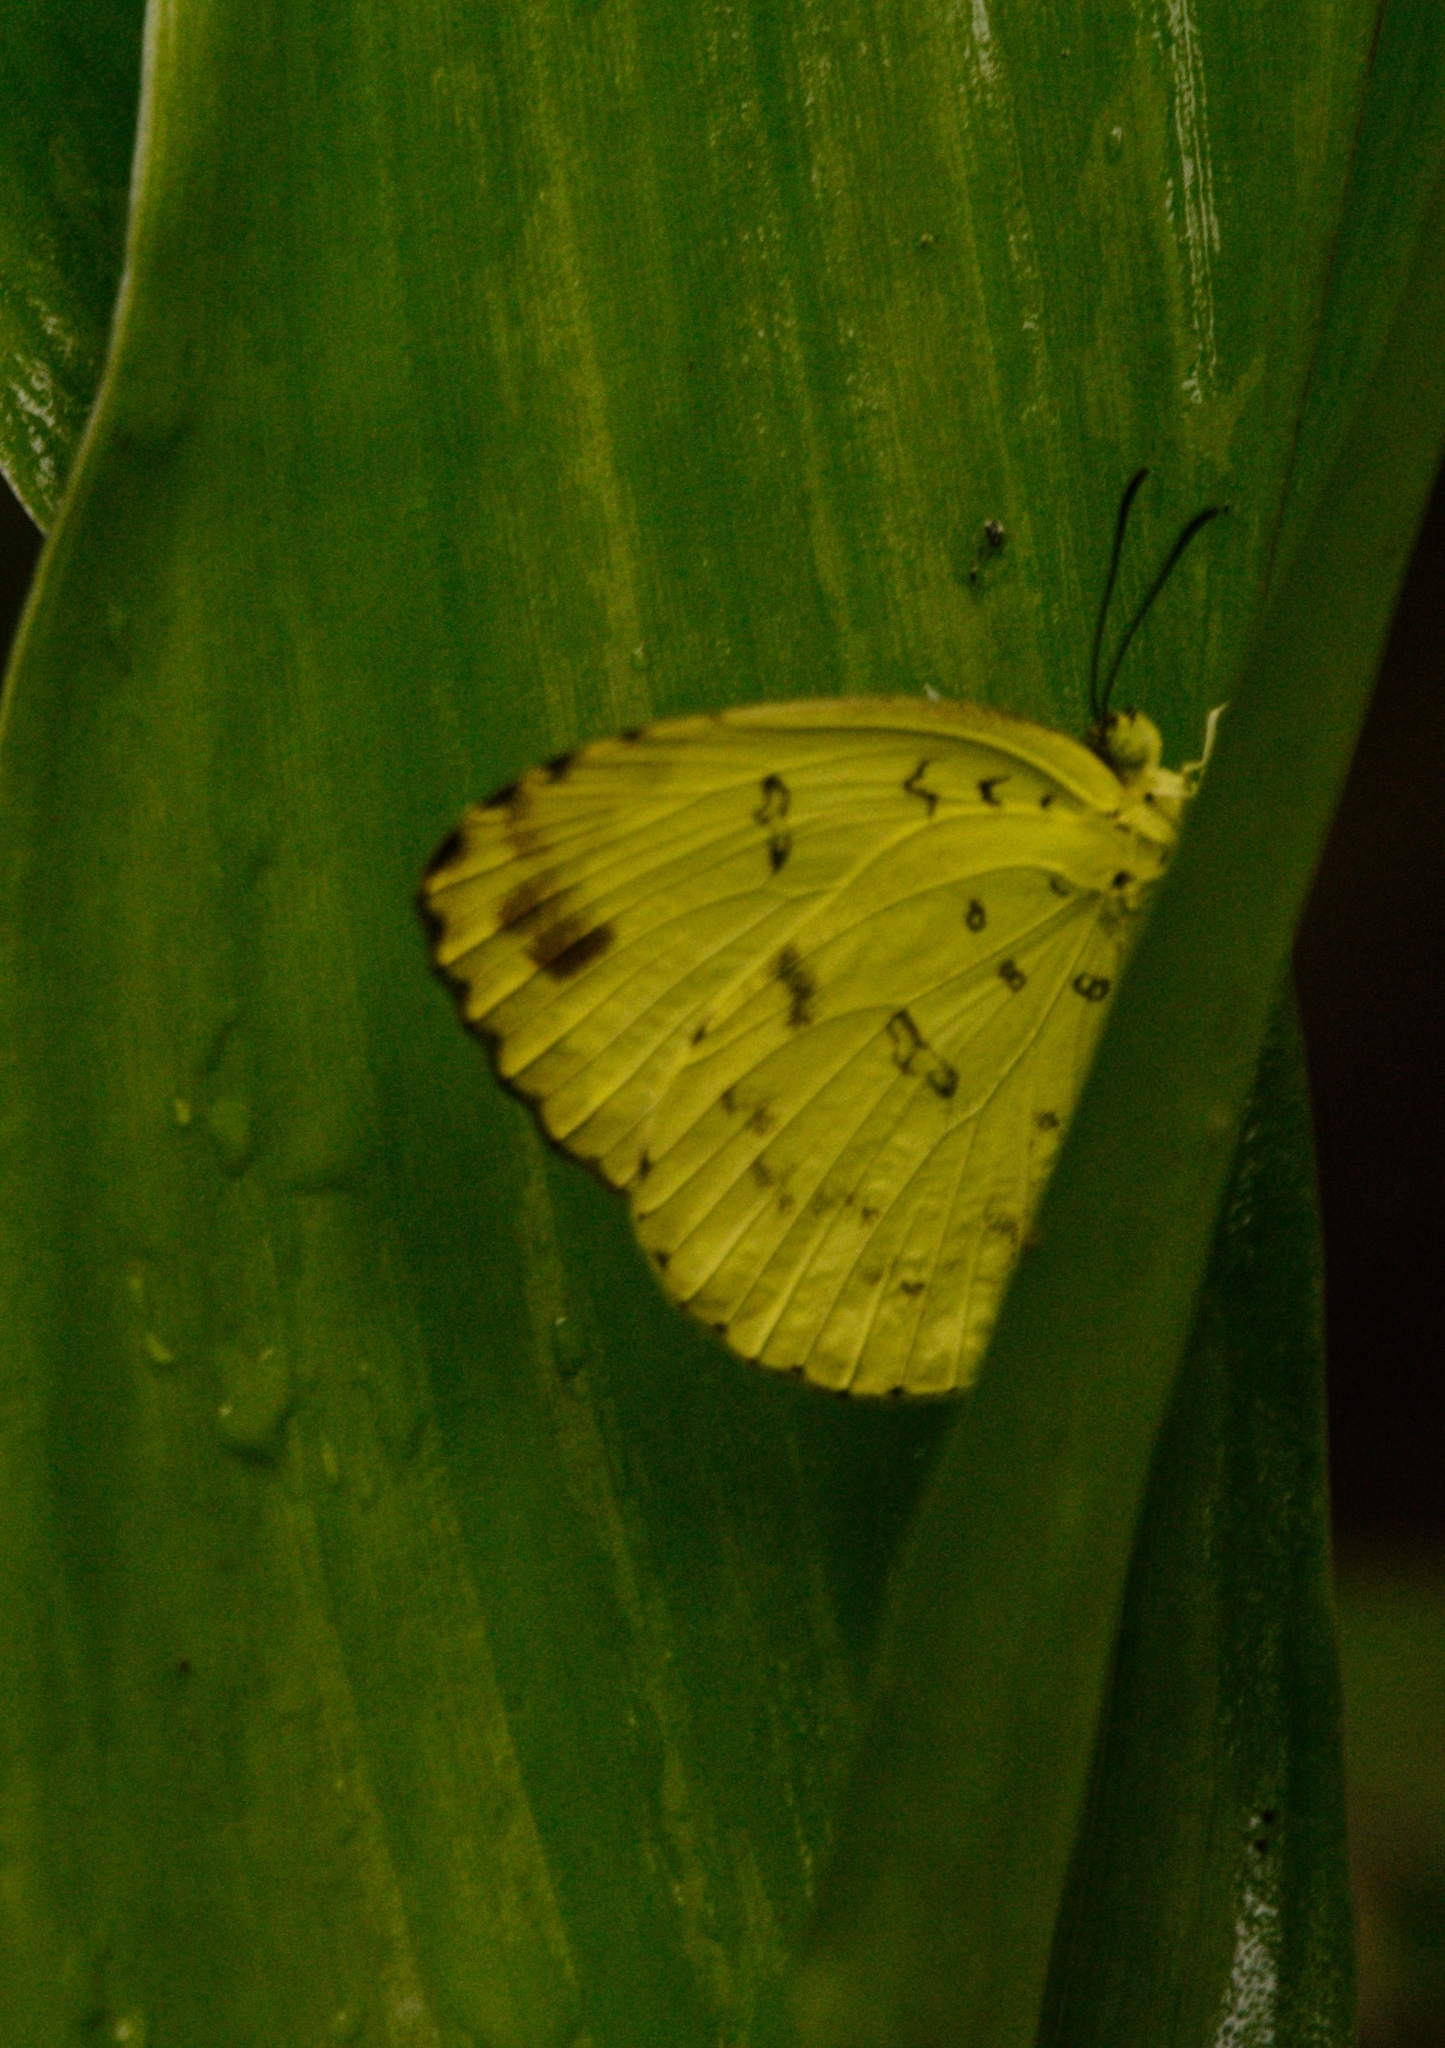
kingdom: Animalia
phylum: Arthropoda
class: Insecta
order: Lepidoptera
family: Pieridae
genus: Eurema
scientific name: Eurema blanda
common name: Three-spot grass yellow
